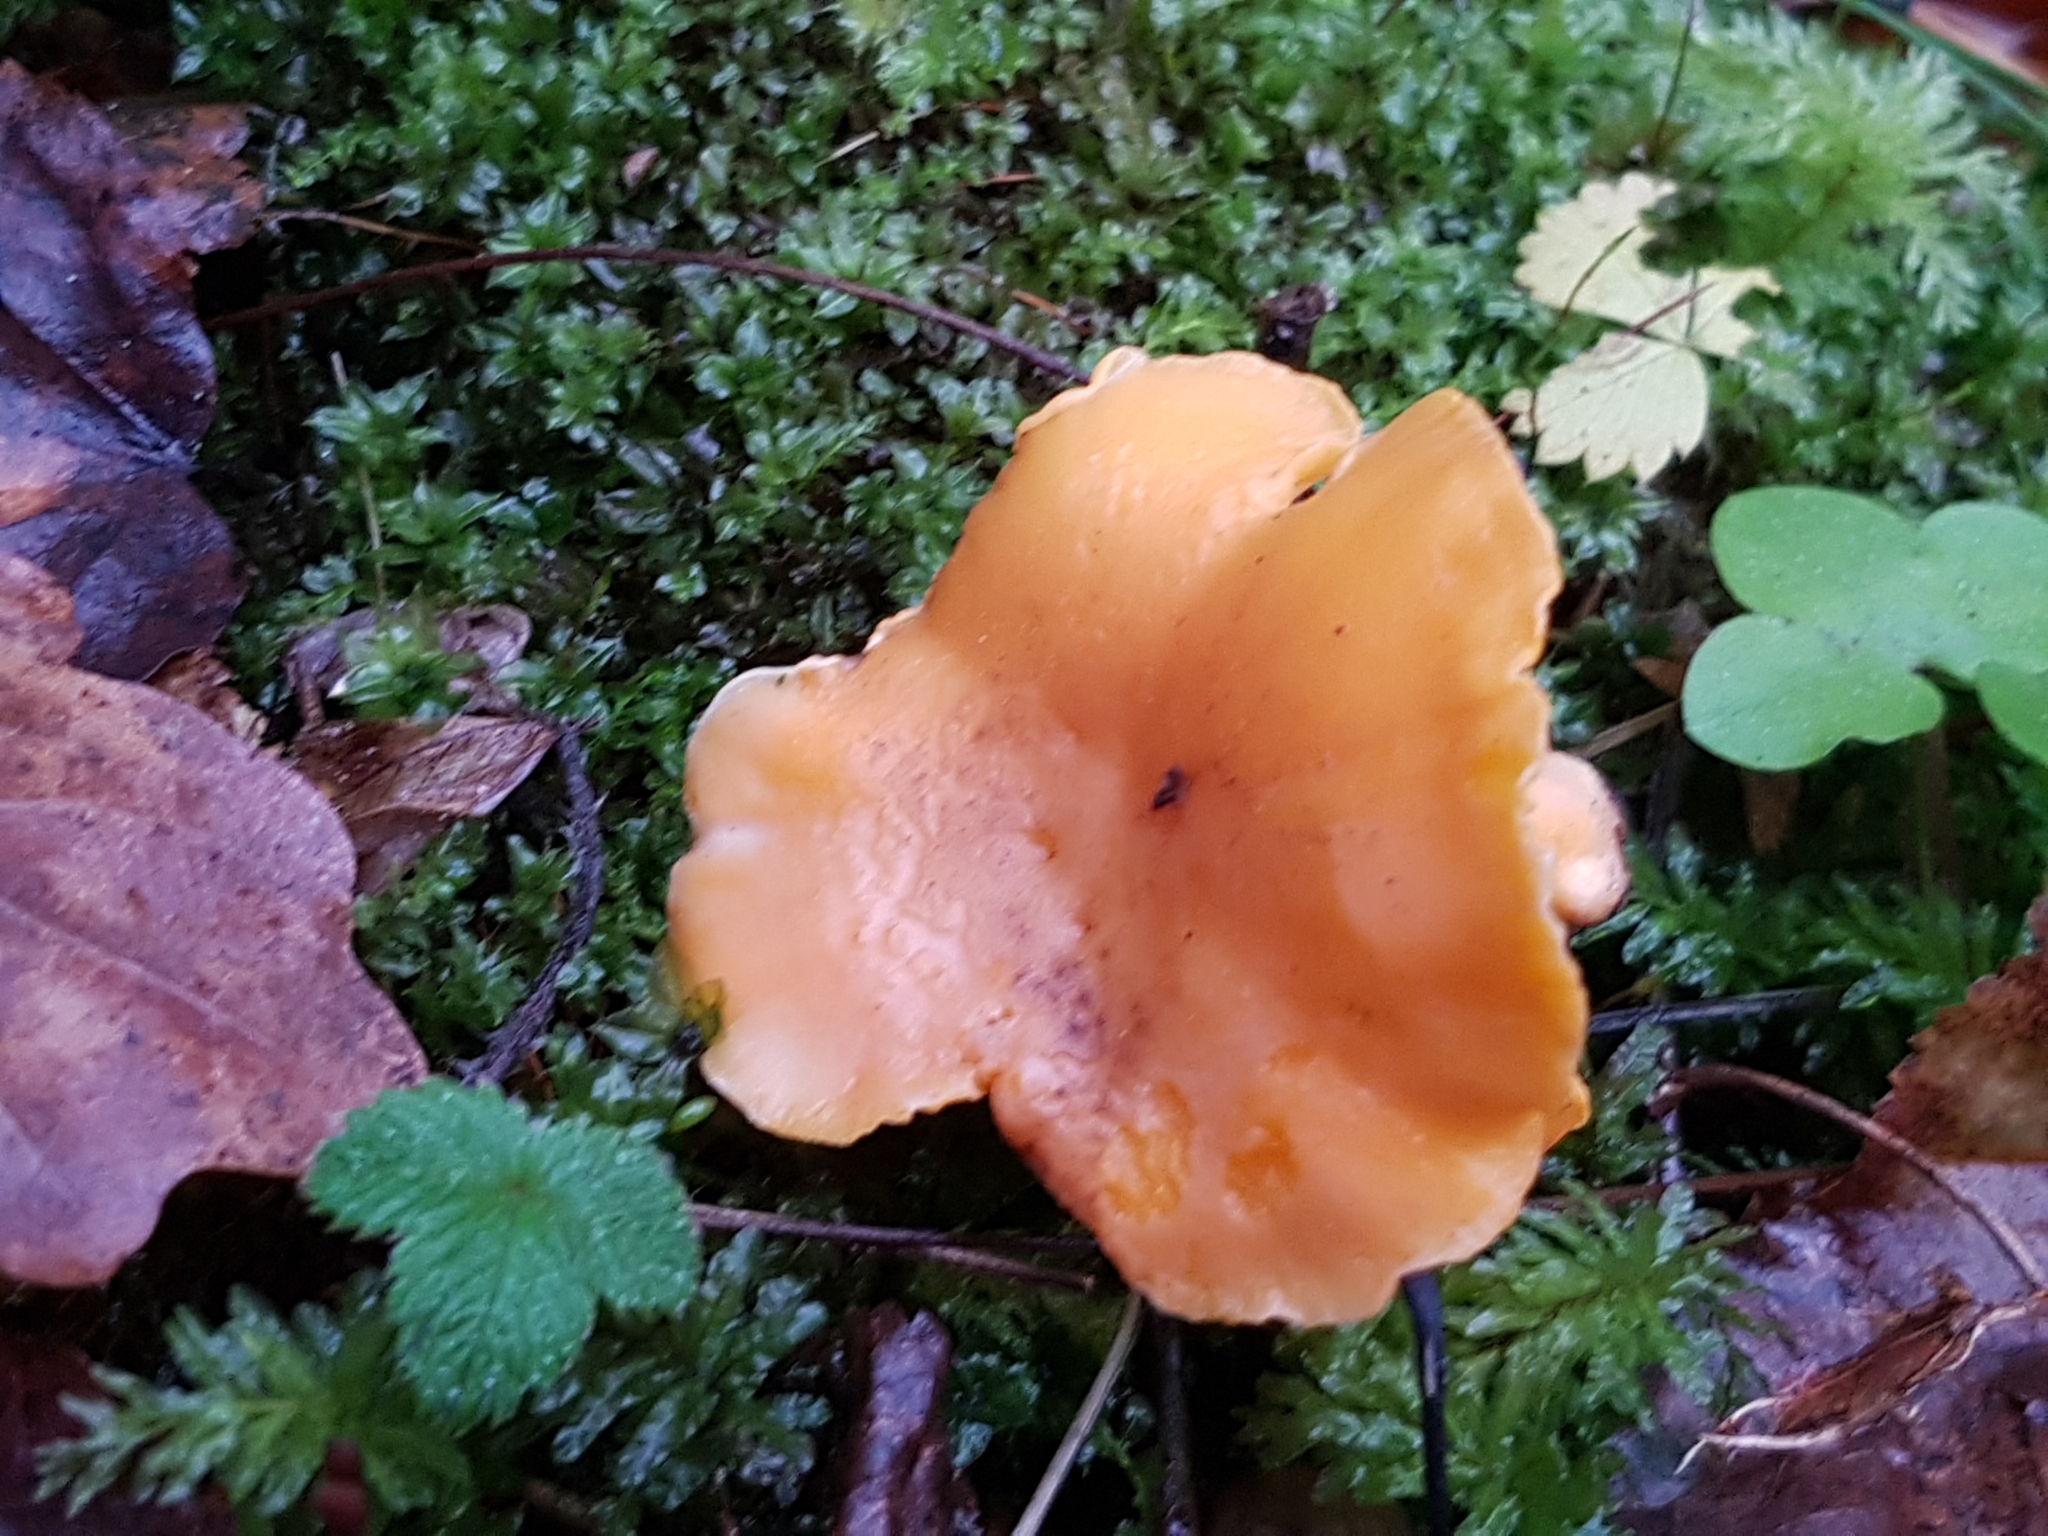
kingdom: Fungi
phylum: Basidiomycota
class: Agaricomycetes
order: Cantharellales
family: Hydnaceae
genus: Cantharellus
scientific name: Cantharellus cibarius
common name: Chanterelle
